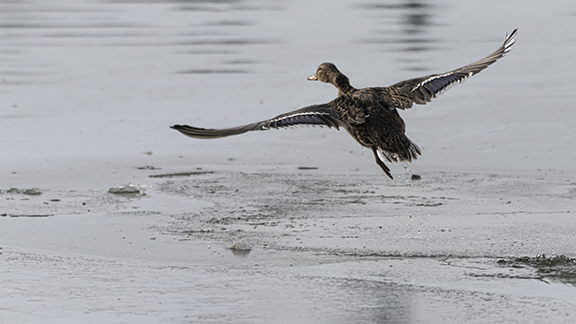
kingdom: Animalia
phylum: Chordata
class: Aves
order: Anseriformes
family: Anatidae
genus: Anas
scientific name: Anas platyrhynchos
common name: Mallard
